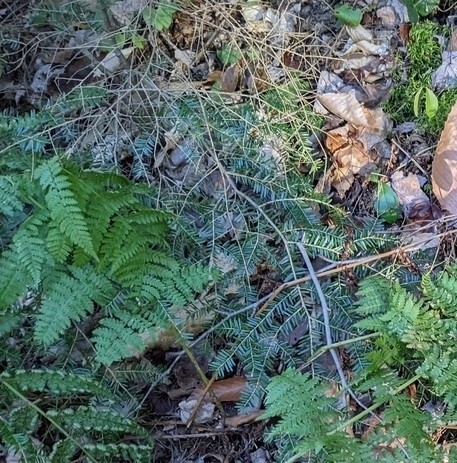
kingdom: Plantae
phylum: Tracheophyta
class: Pinopsida
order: Pinales
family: Pinaceae
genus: Tsuga
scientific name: Tsuga canadensis
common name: Eastern hemlock
